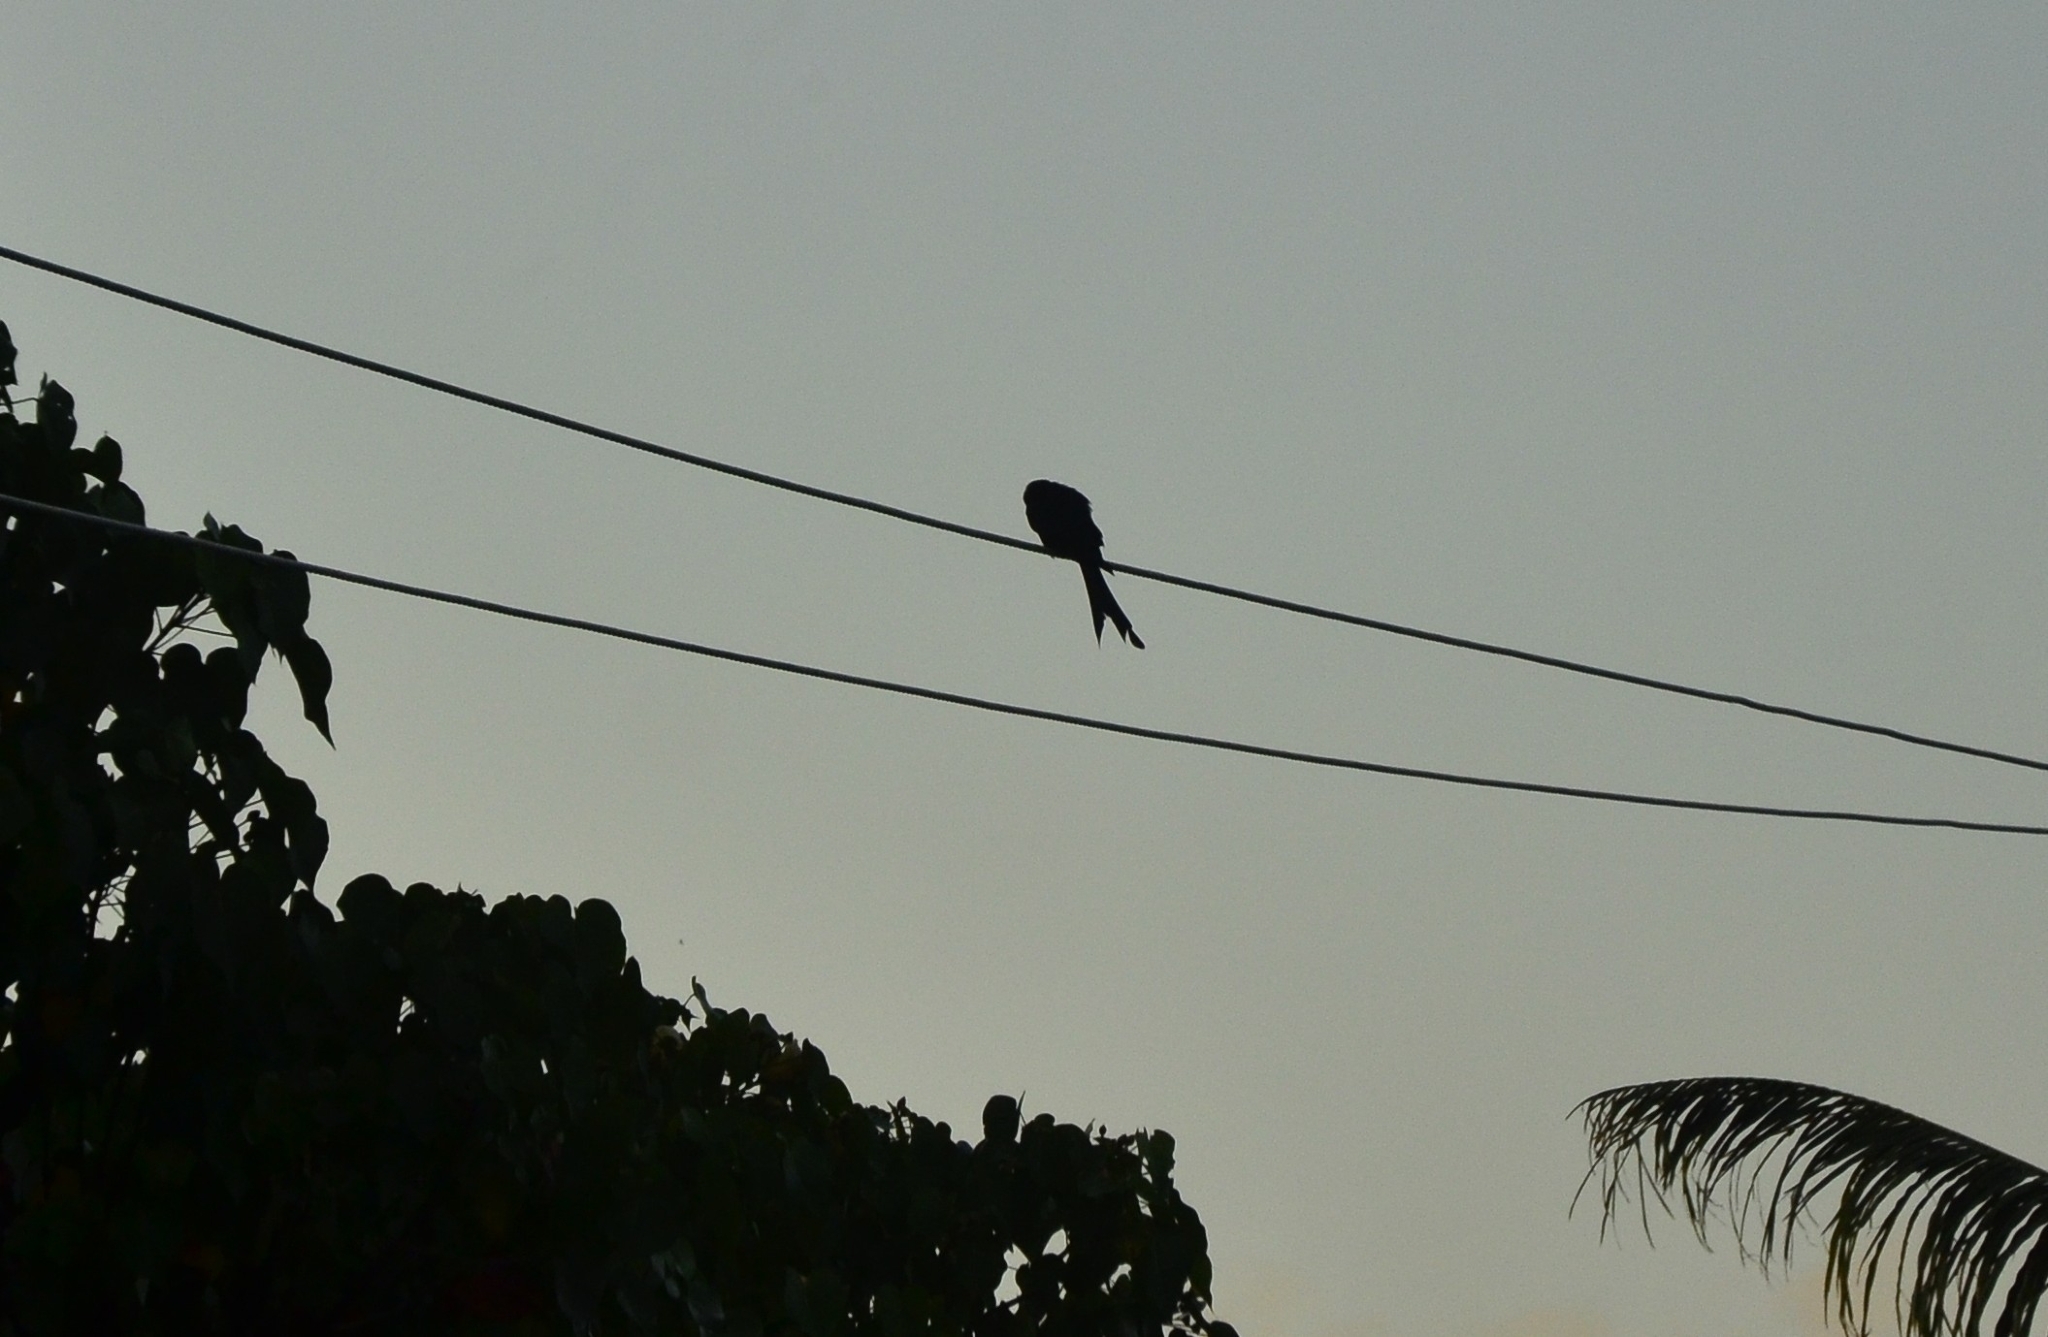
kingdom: Animalia
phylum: Chordata
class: Aves
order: Passeriformes
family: Dicruridae
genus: Dicrurus
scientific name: Dicrurus macrocercus
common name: Black drongo
